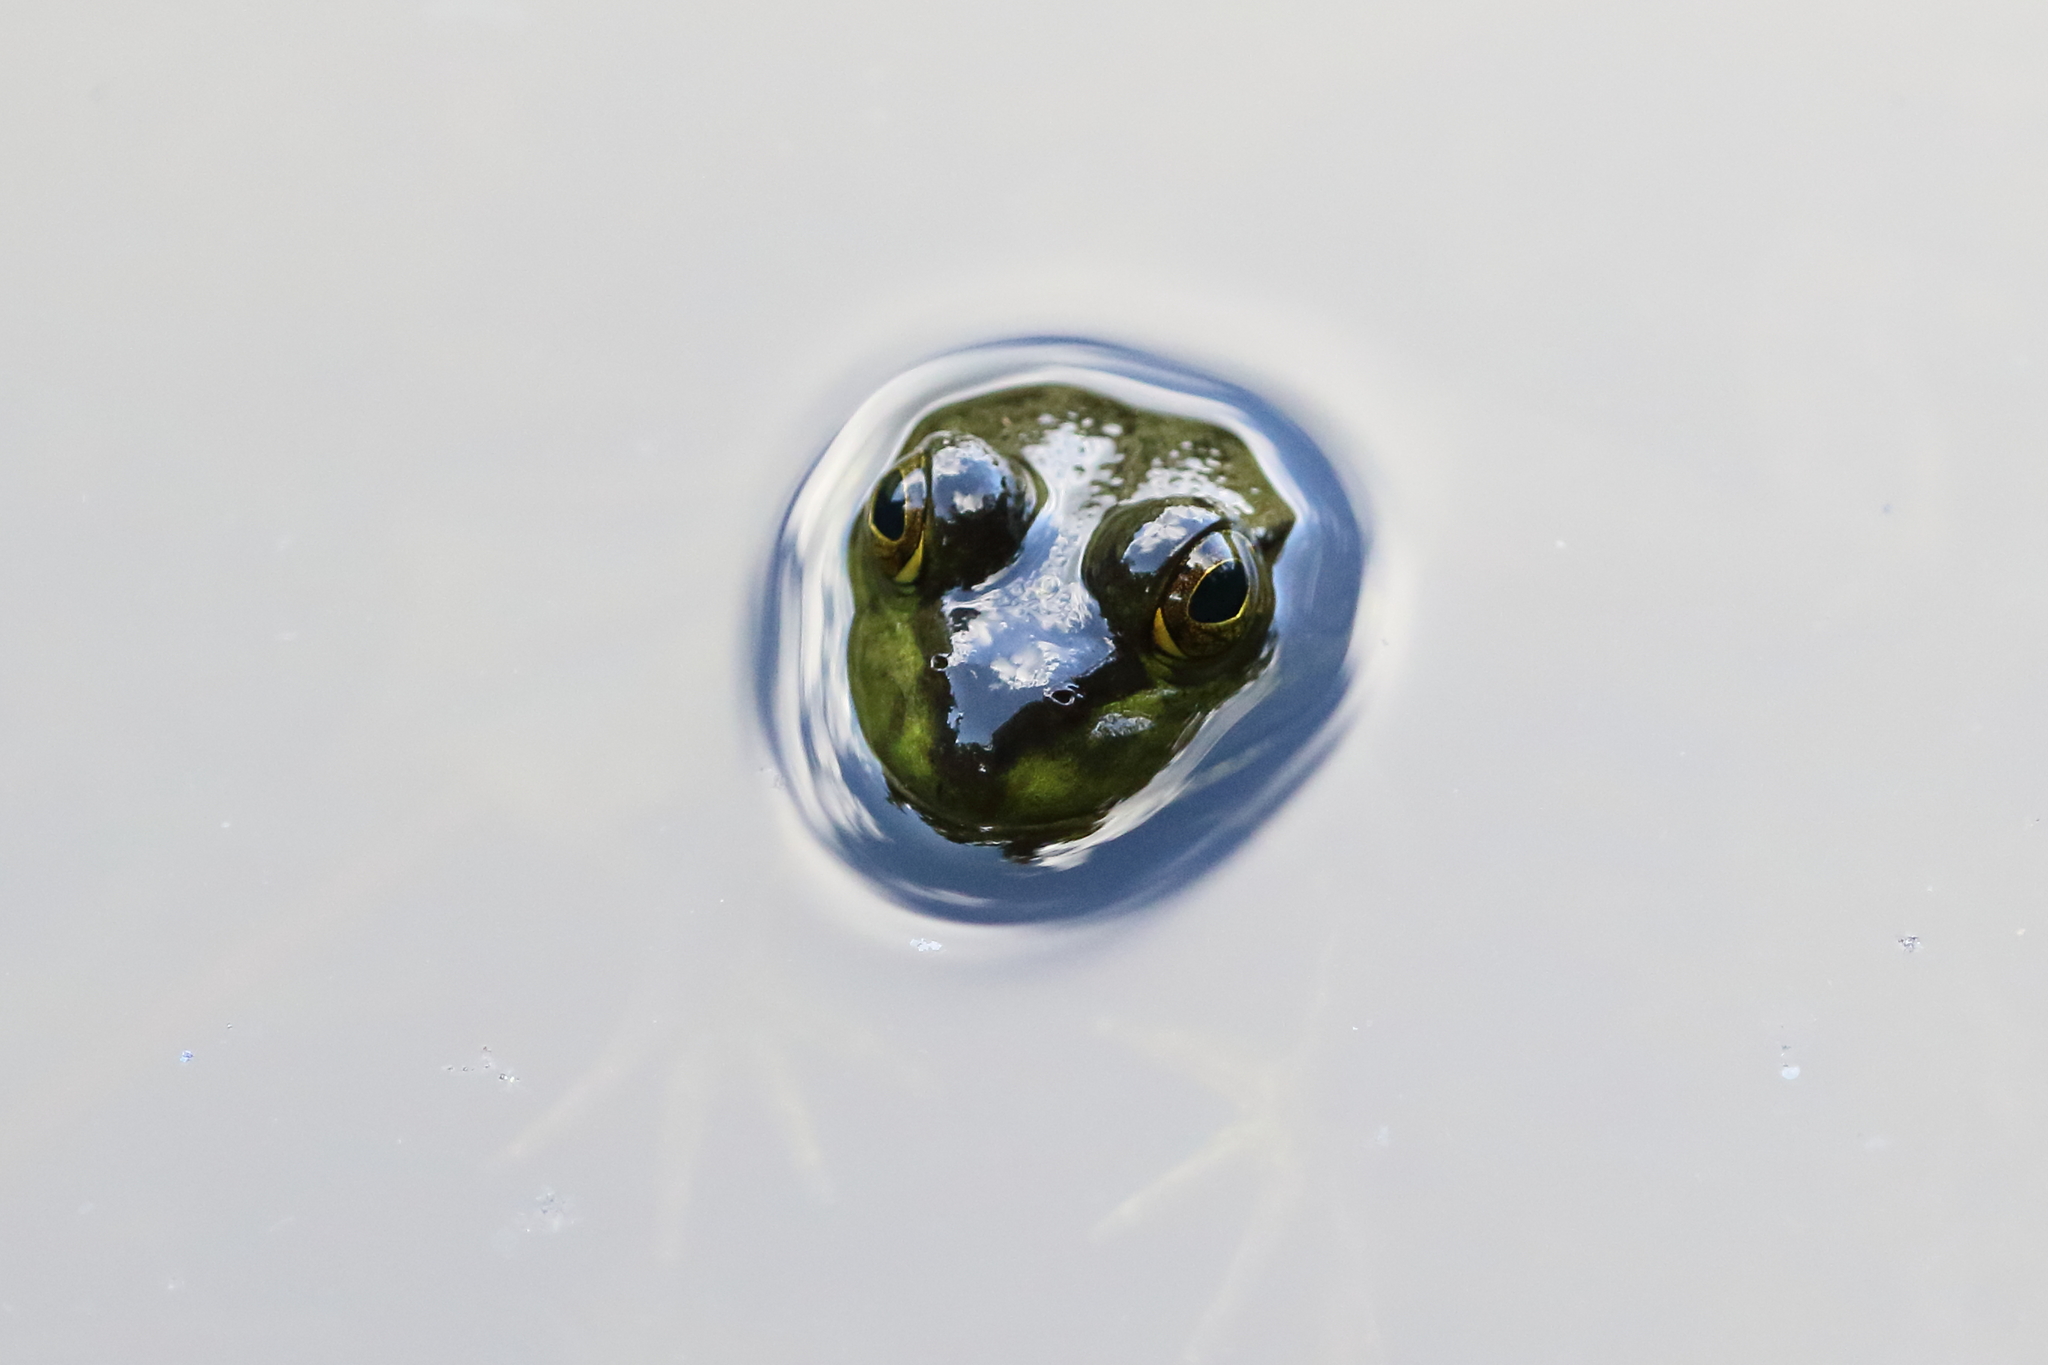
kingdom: Animalia
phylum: Chordata
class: Amphibia
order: Anura
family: Ranidae
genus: Lithobates
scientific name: Lithobates
